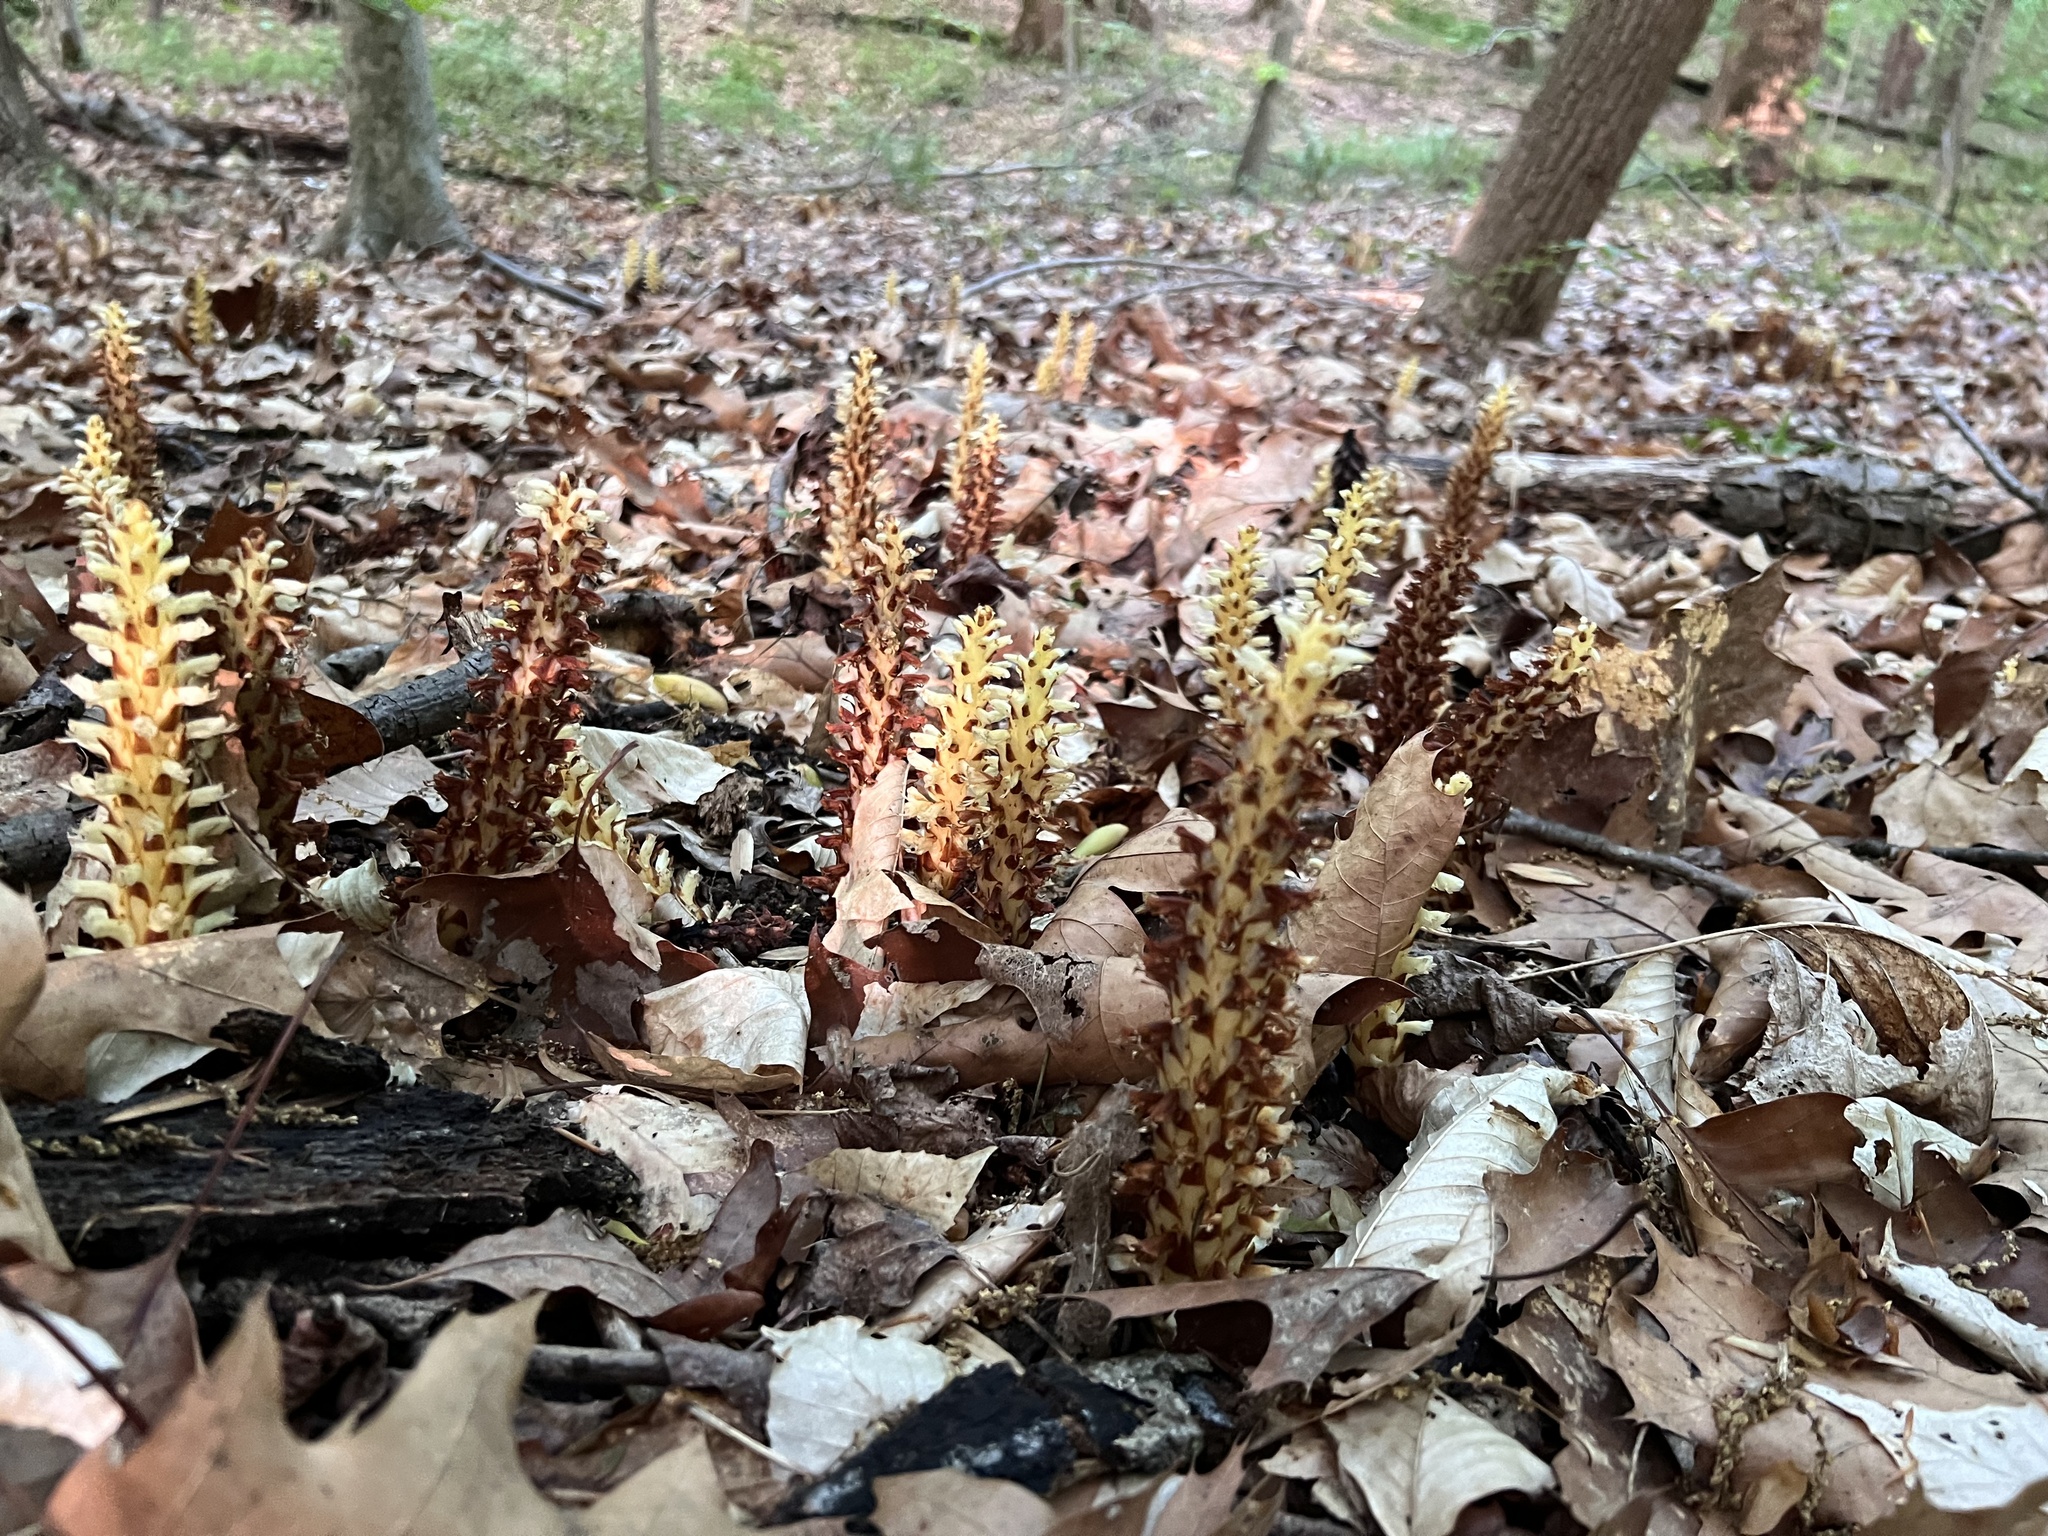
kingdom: Plantae
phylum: Tracheophyta
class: Magnoliopsida
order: Lamiales
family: Orobanchaceae
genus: Conopholis
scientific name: Conopholis americana
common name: American cancer-root
